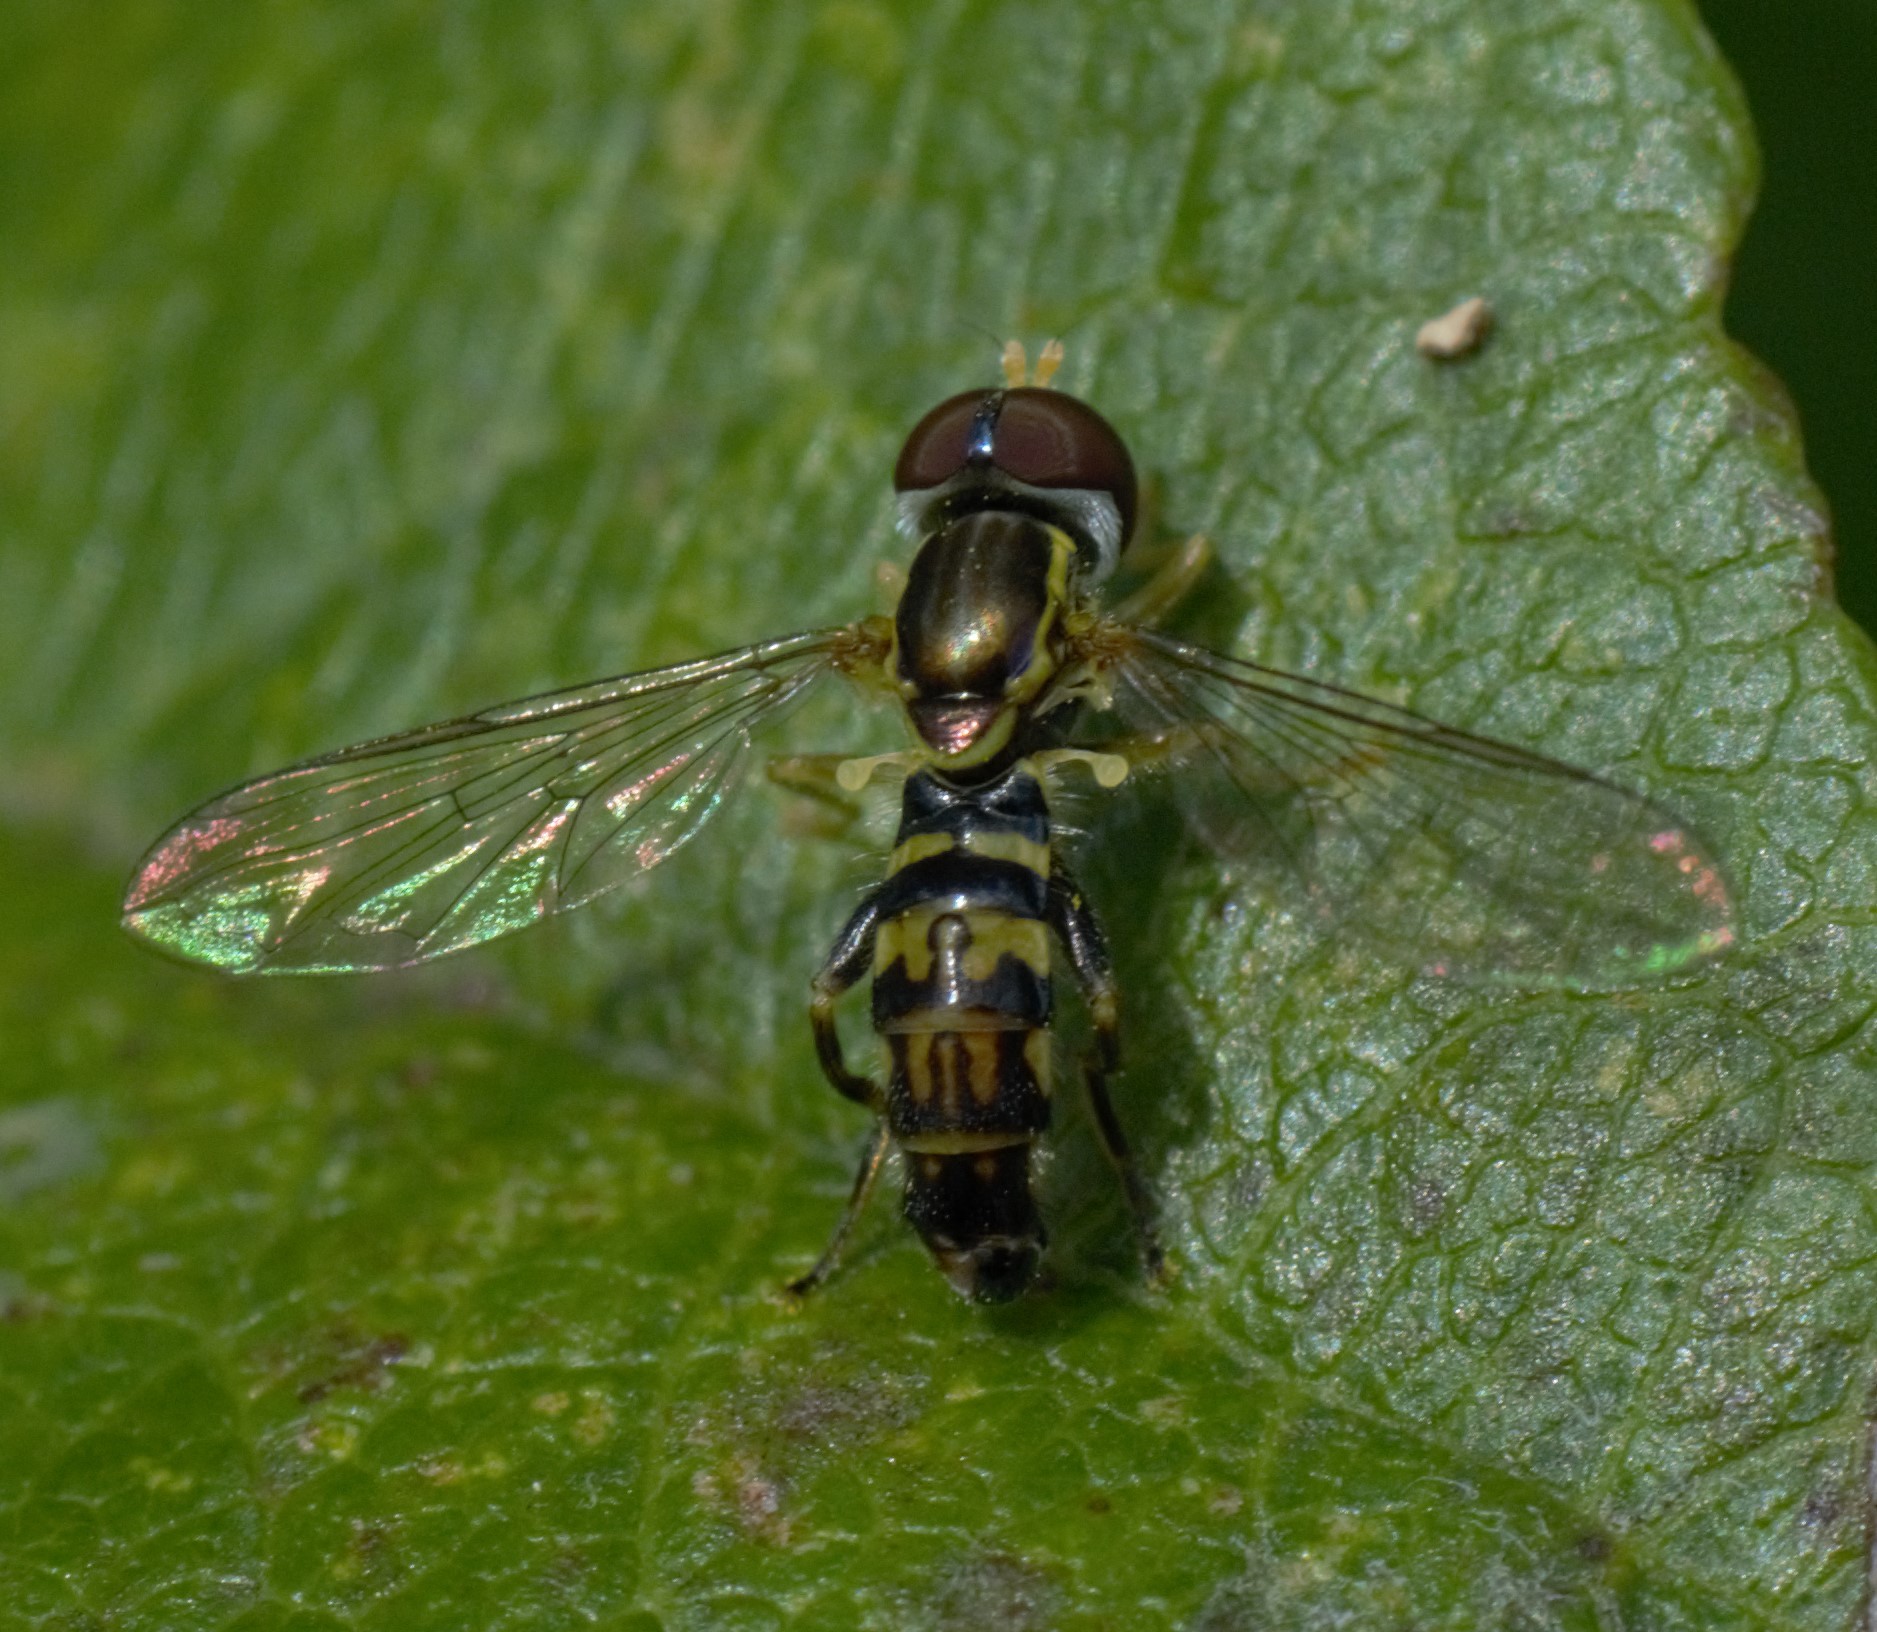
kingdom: Animalia
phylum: Arthropoda
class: Insecta
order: Diptera
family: Syrphidae
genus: Toxomerus
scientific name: Toxomerus geminatus
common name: Eastern calligrapher
